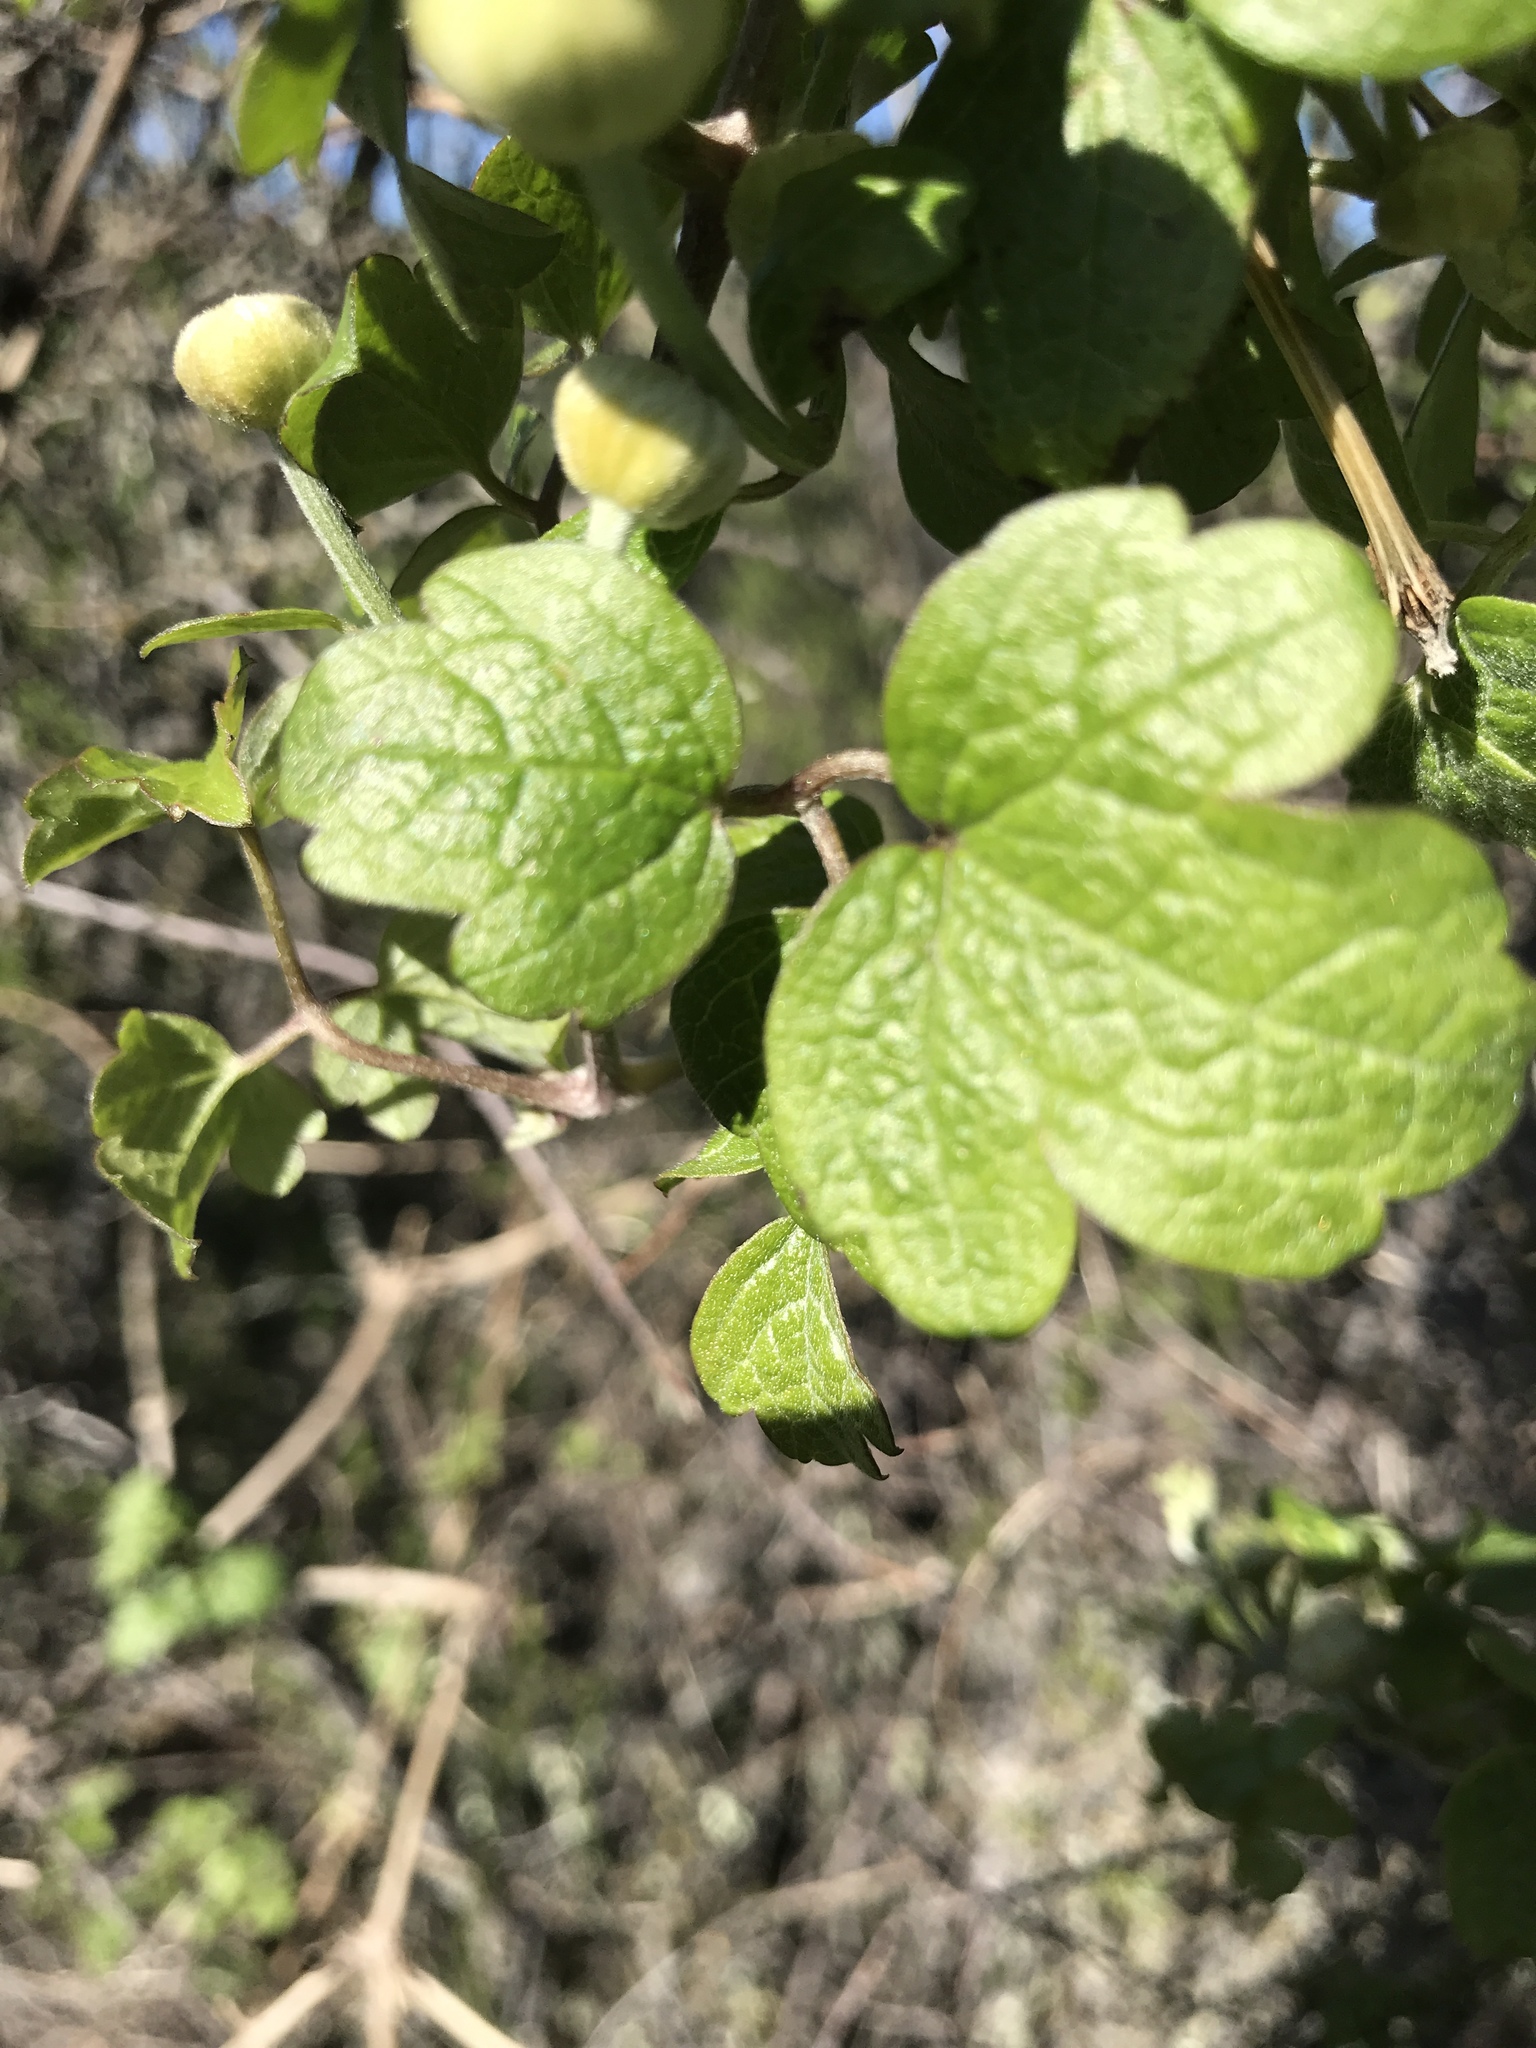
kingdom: Plantae
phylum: Tracheophyta
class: Magnoliopsida
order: Ranunculales
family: Ranunculaceae
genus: Clematis
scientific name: Clematis lasiantha
